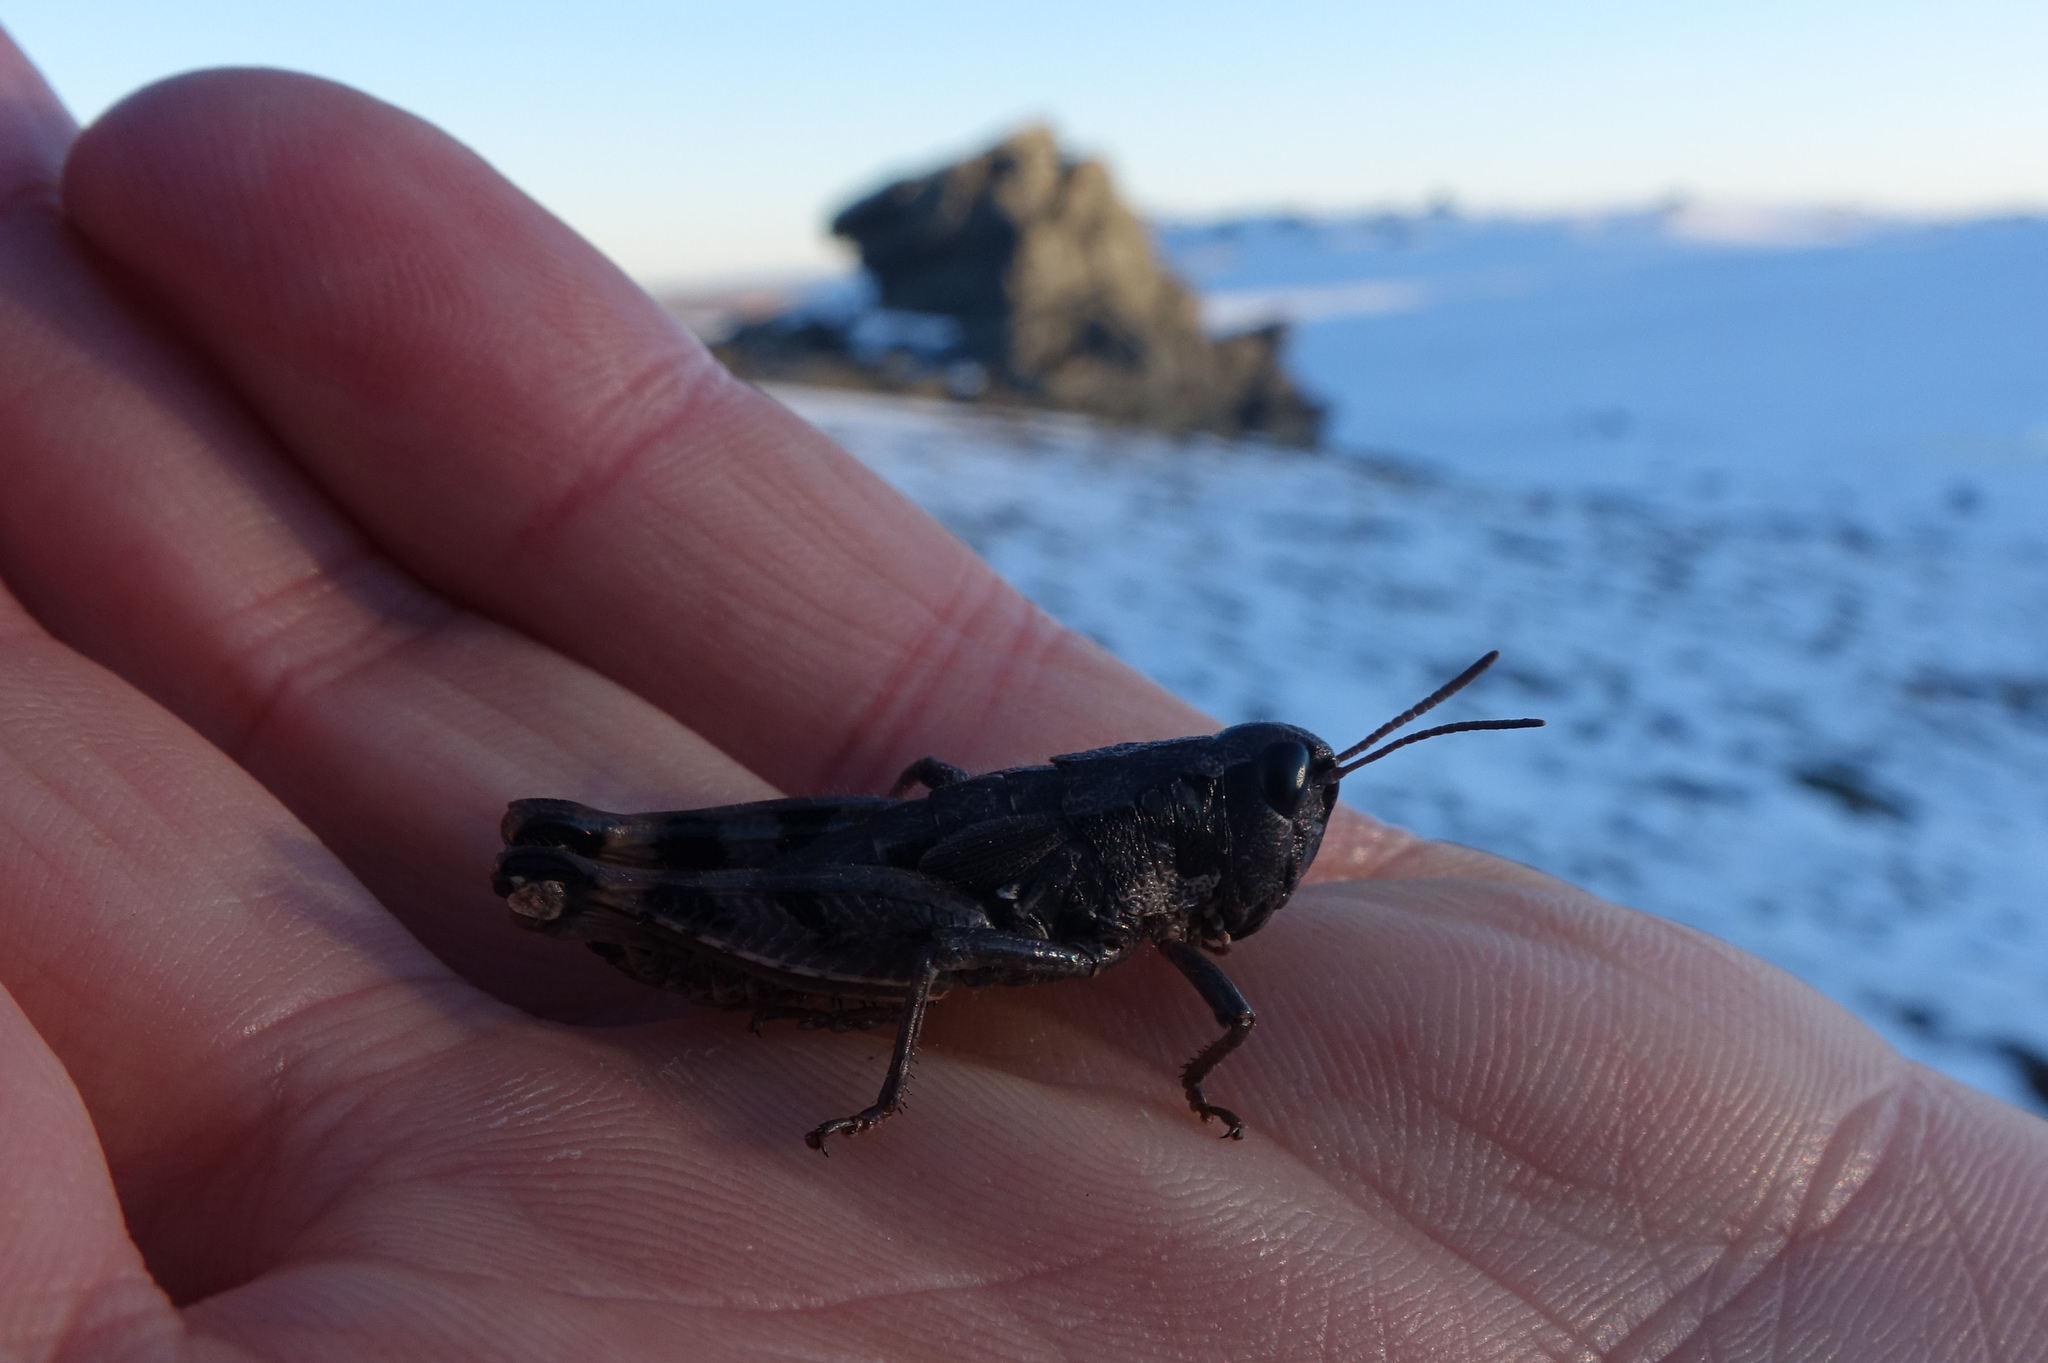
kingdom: Animalia
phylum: Arthropoda
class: Insecta
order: Orthoptera
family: Acrididae
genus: Sigaus
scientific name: Sigaus australis
